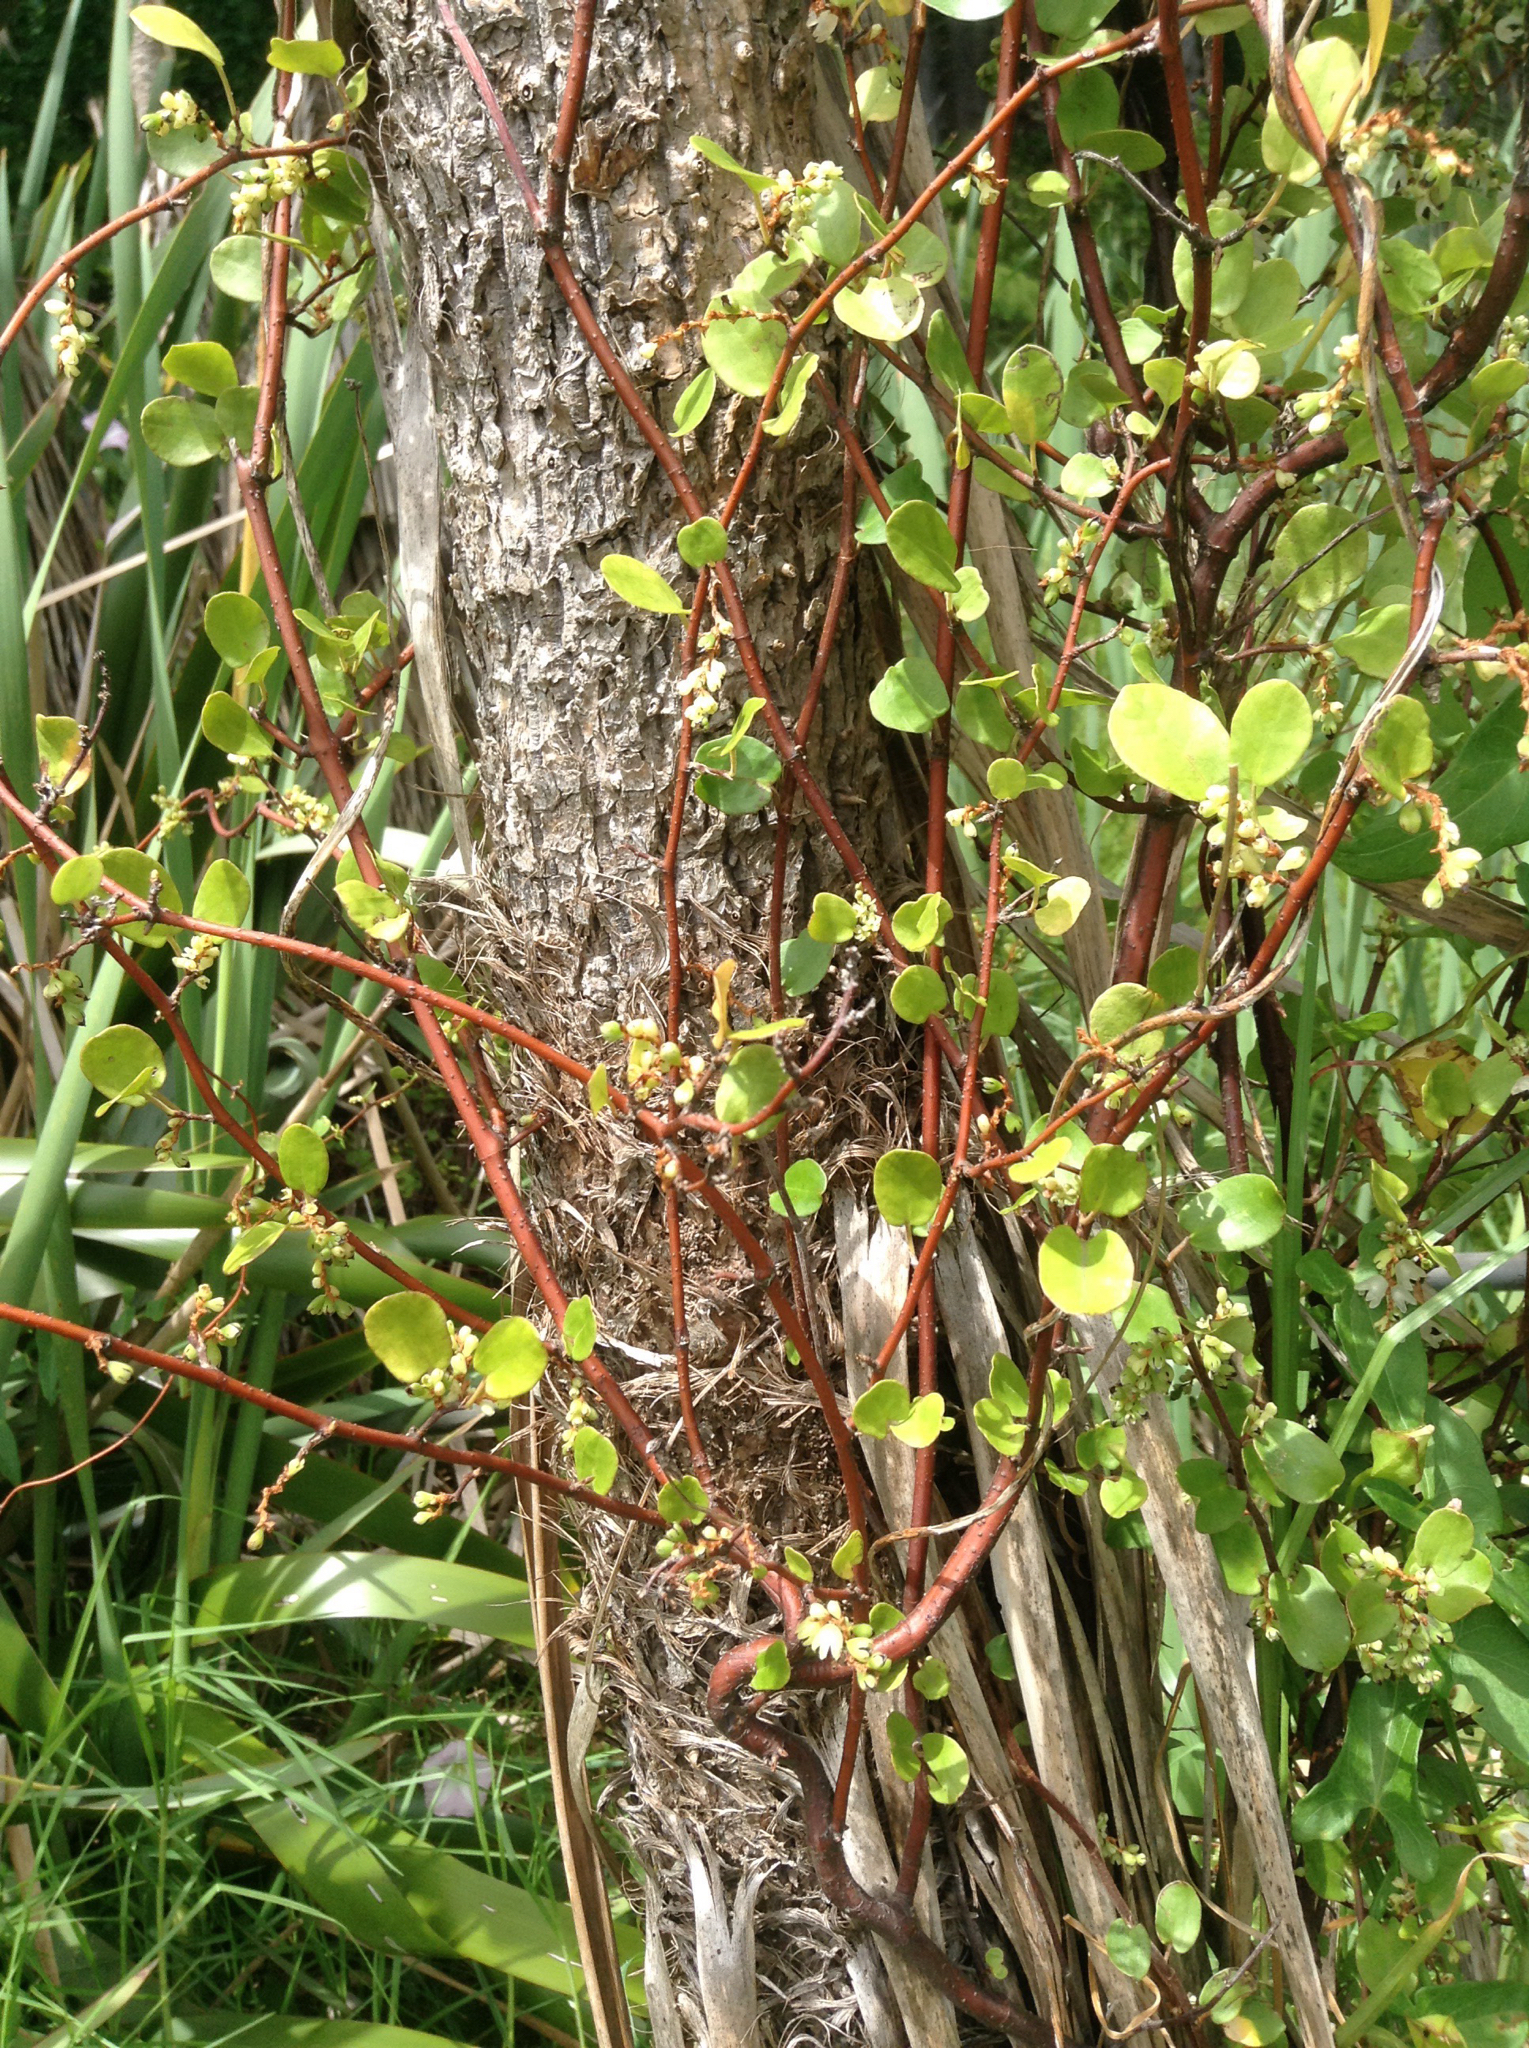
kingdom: Plantae
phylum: Tracheophyta
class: Magnoliopsida
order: Caryophyllales
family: Polygonaceae
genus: Muehlenbeckia
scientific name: Muehlenbeckia complexa
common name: Wireplant
